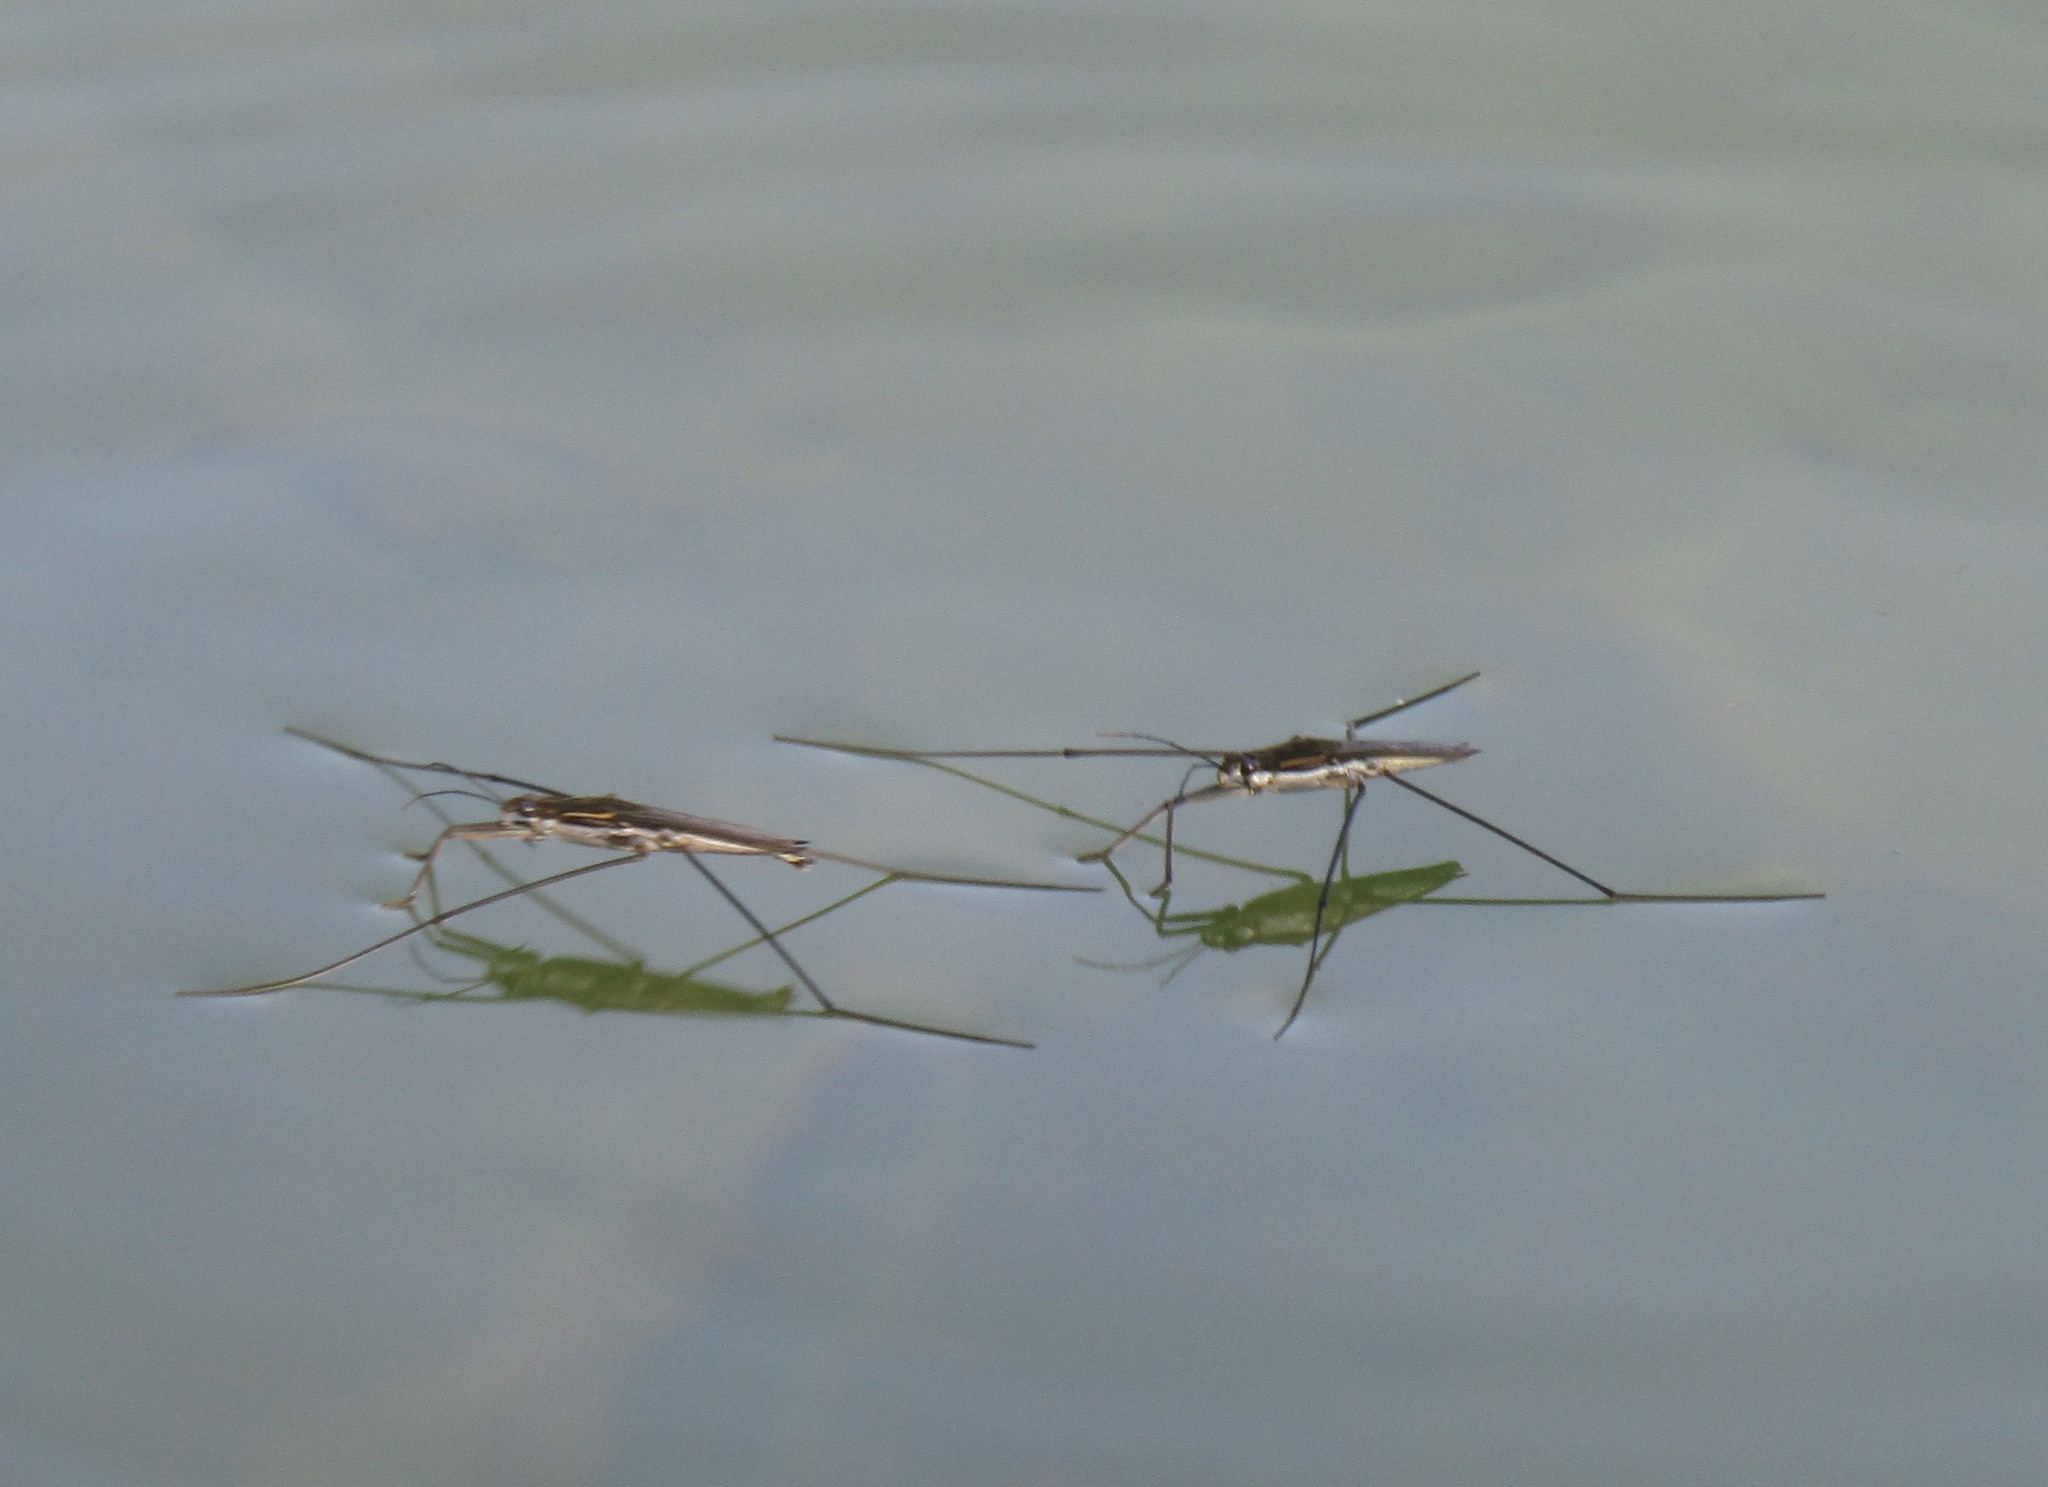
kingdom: Animalia
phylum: Arthropoda
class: Insecta
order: Hemiptera
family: Gerridae
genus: Aquarius
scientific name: Aquarius paludum
